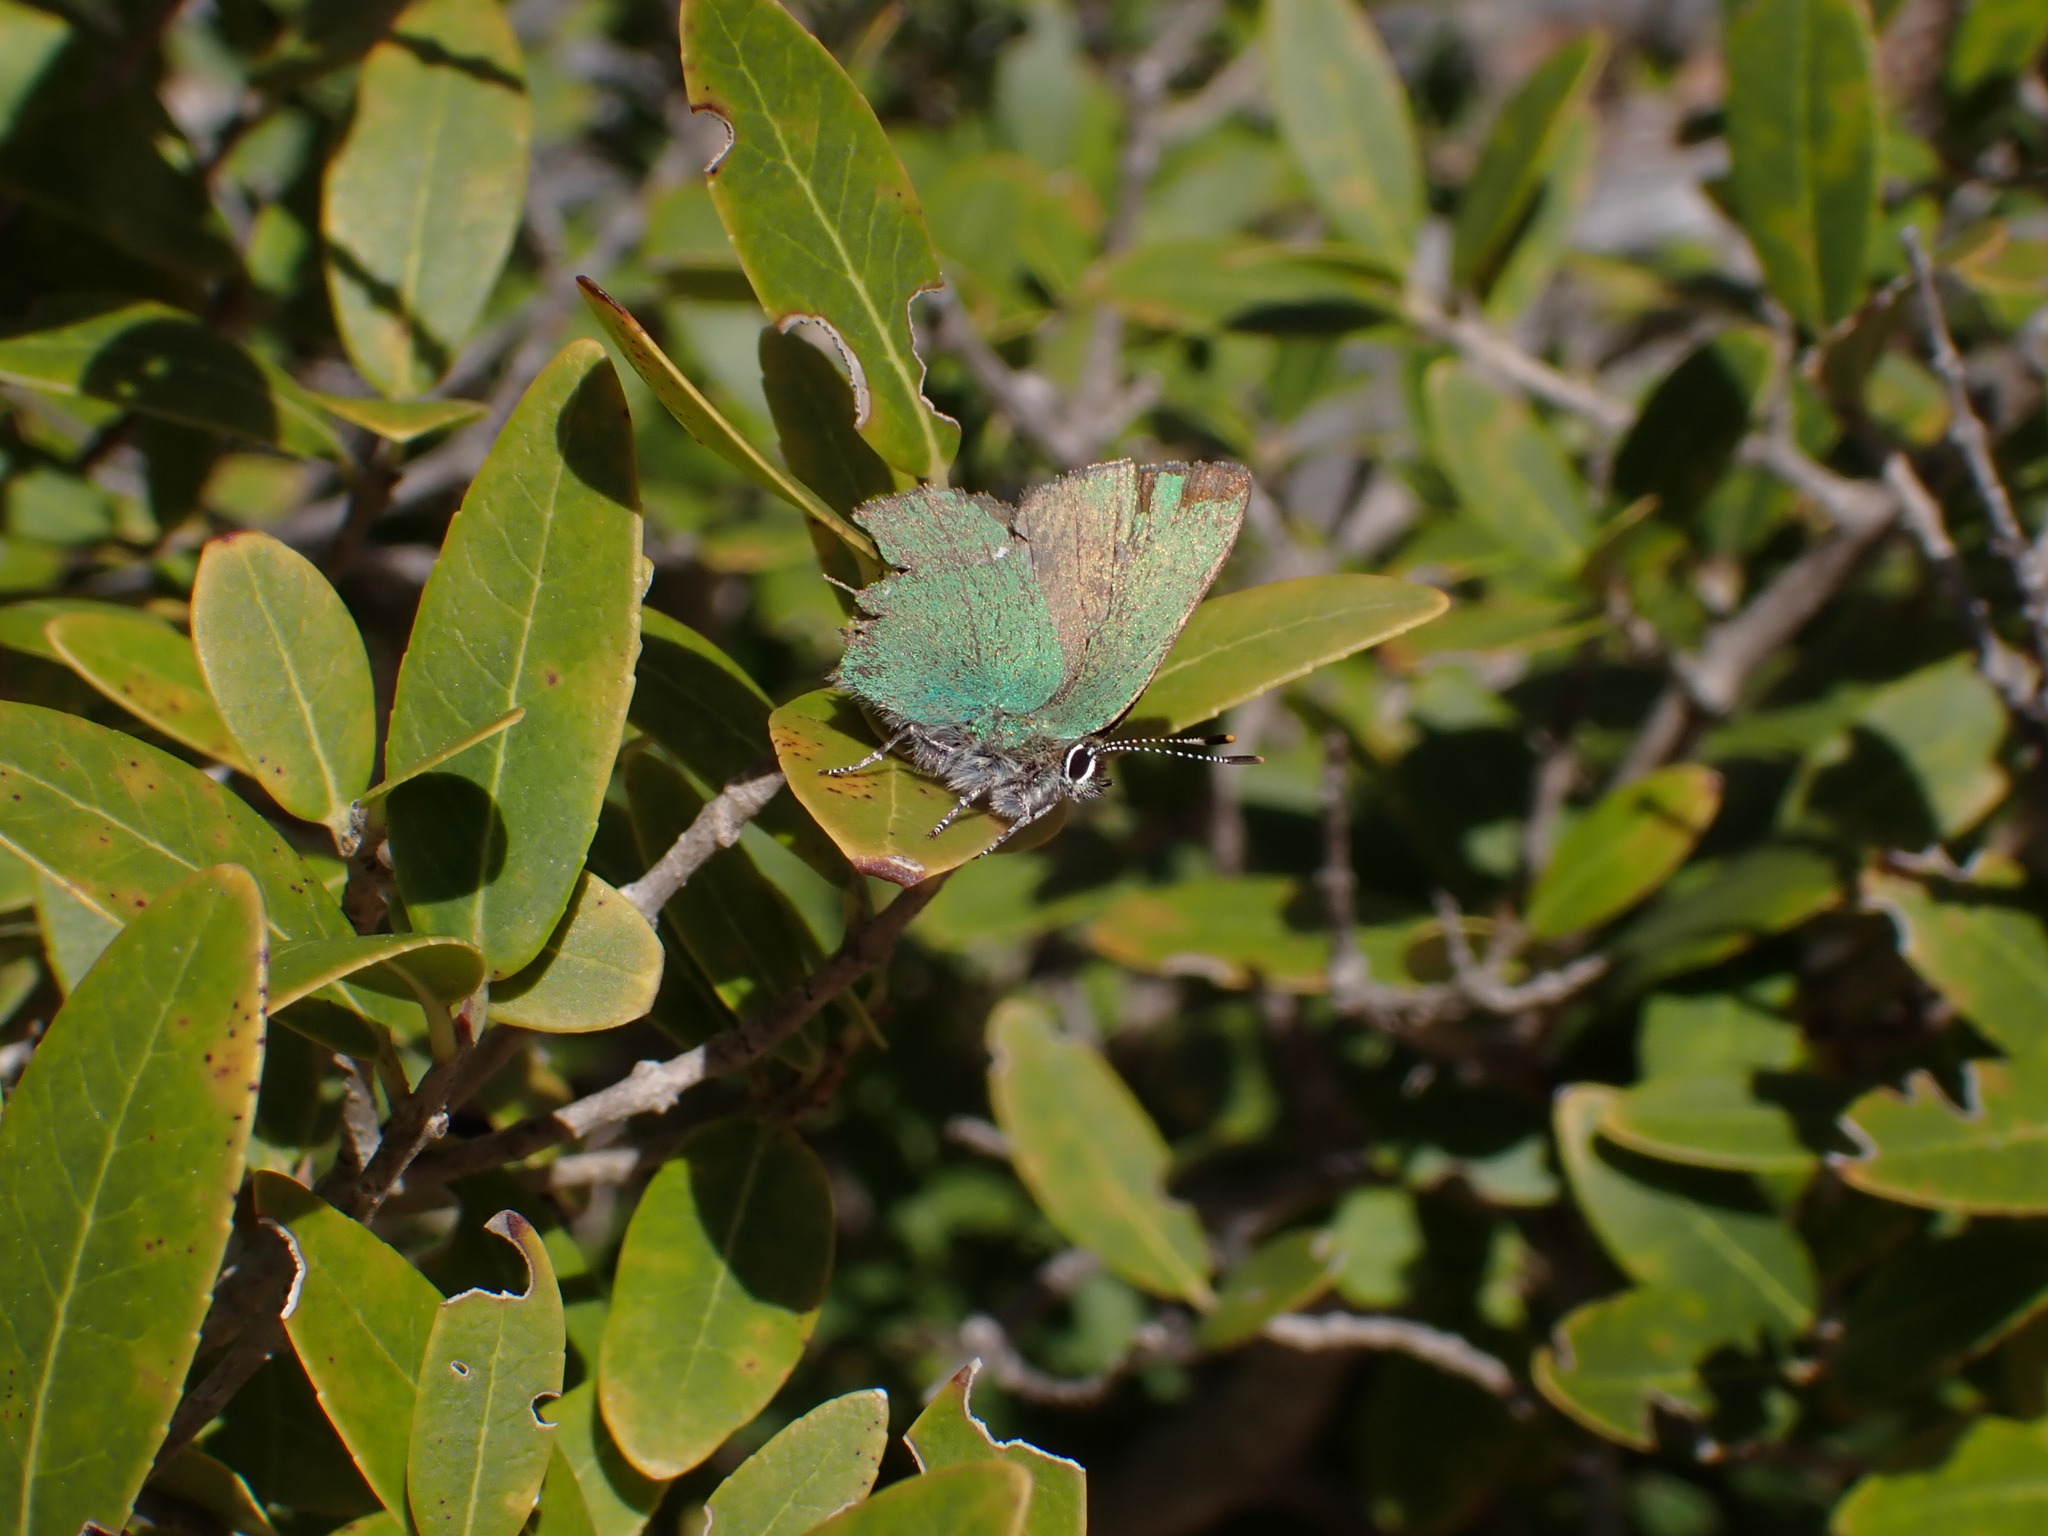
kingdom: Animalia
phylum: Arthropoda
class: Insecta
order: Lepidoptera
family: Lycaenidae
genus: Callophrys
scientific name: Callophrys rubi
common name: Green hairstreak
